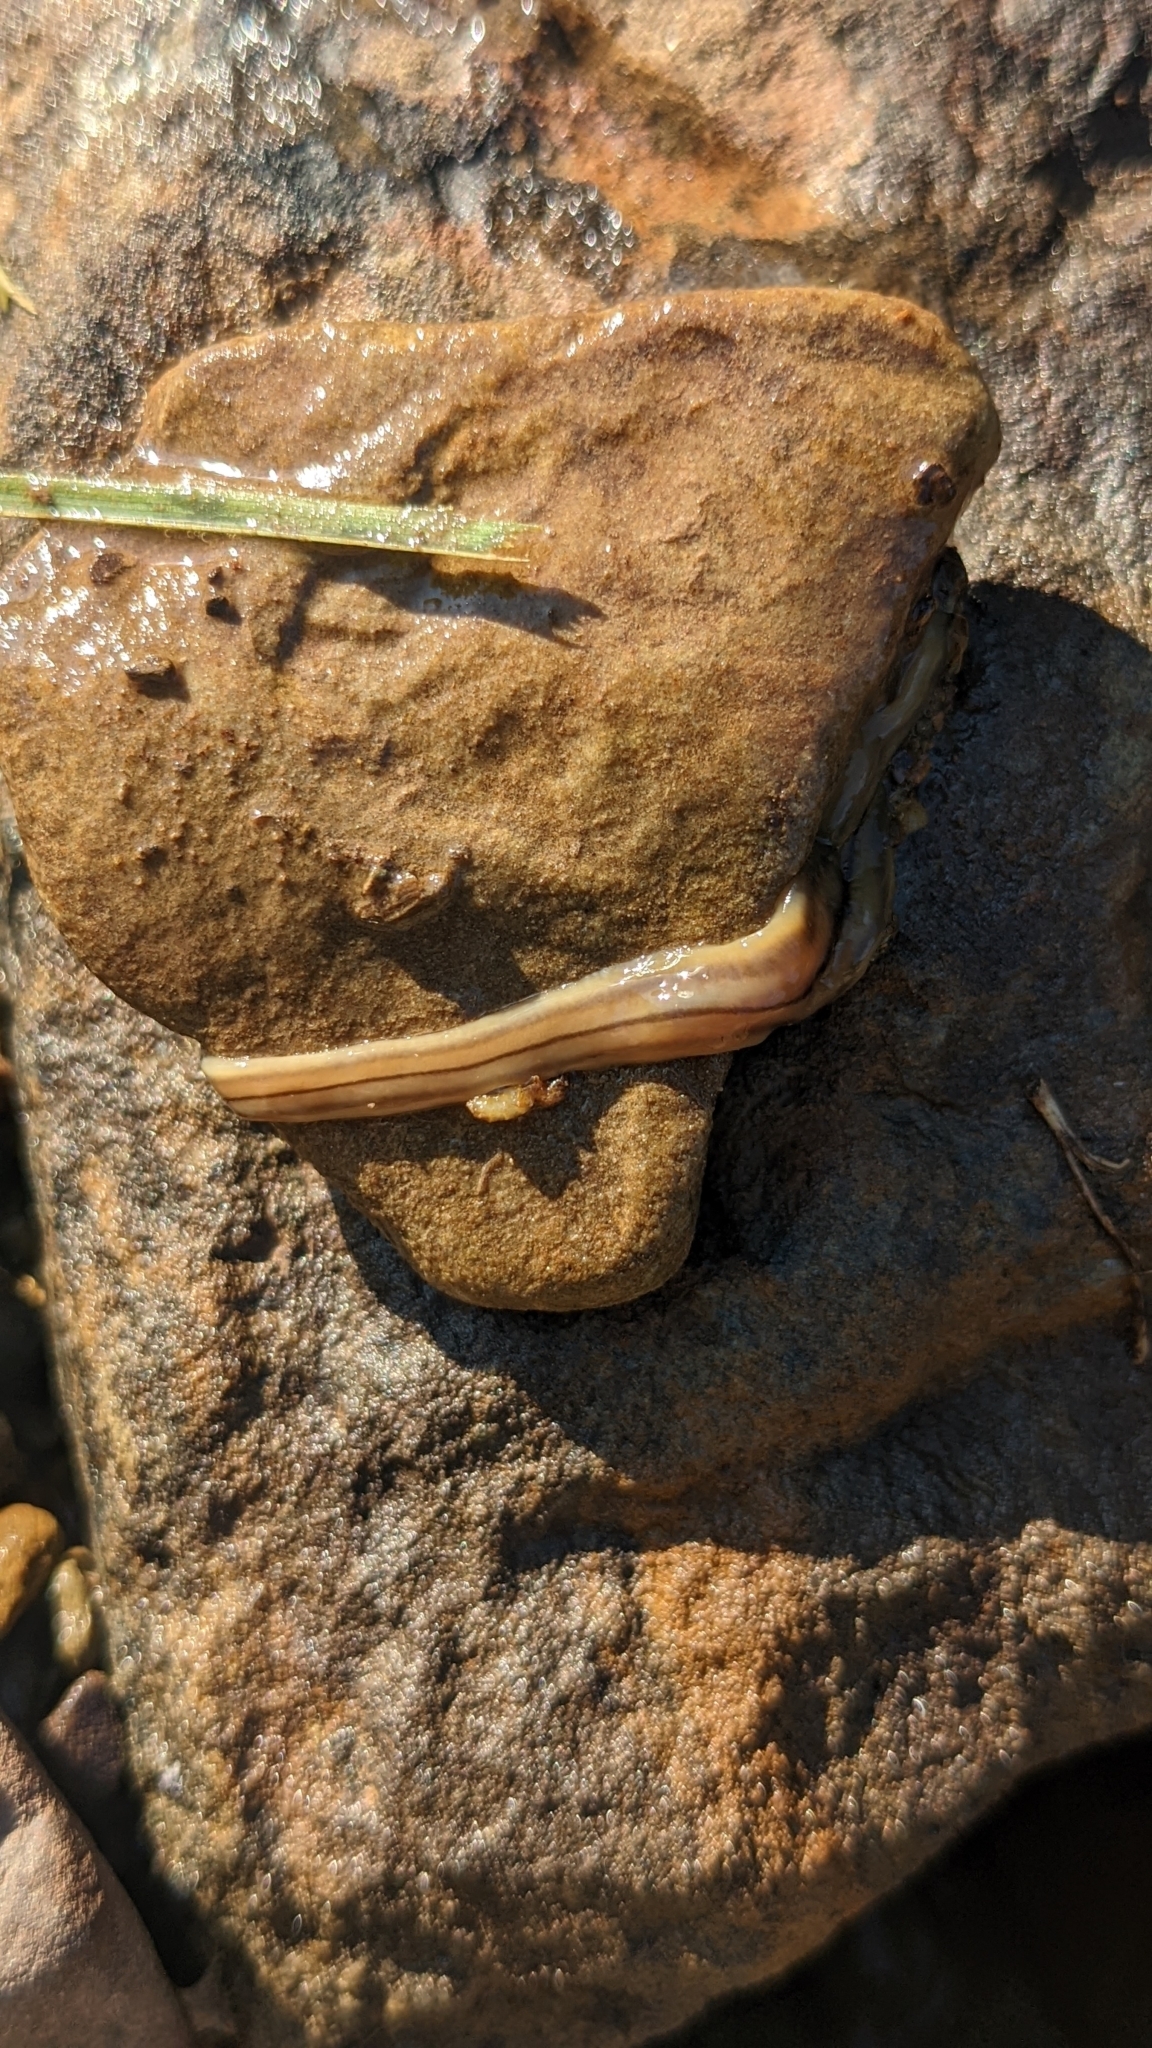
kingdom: Animalia
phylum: Platyhelminthes
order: Tricladida
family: Geoplanidae
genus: Bipalium
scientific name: Bipalium pennsylvanicum
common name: Three-lined land planarian
